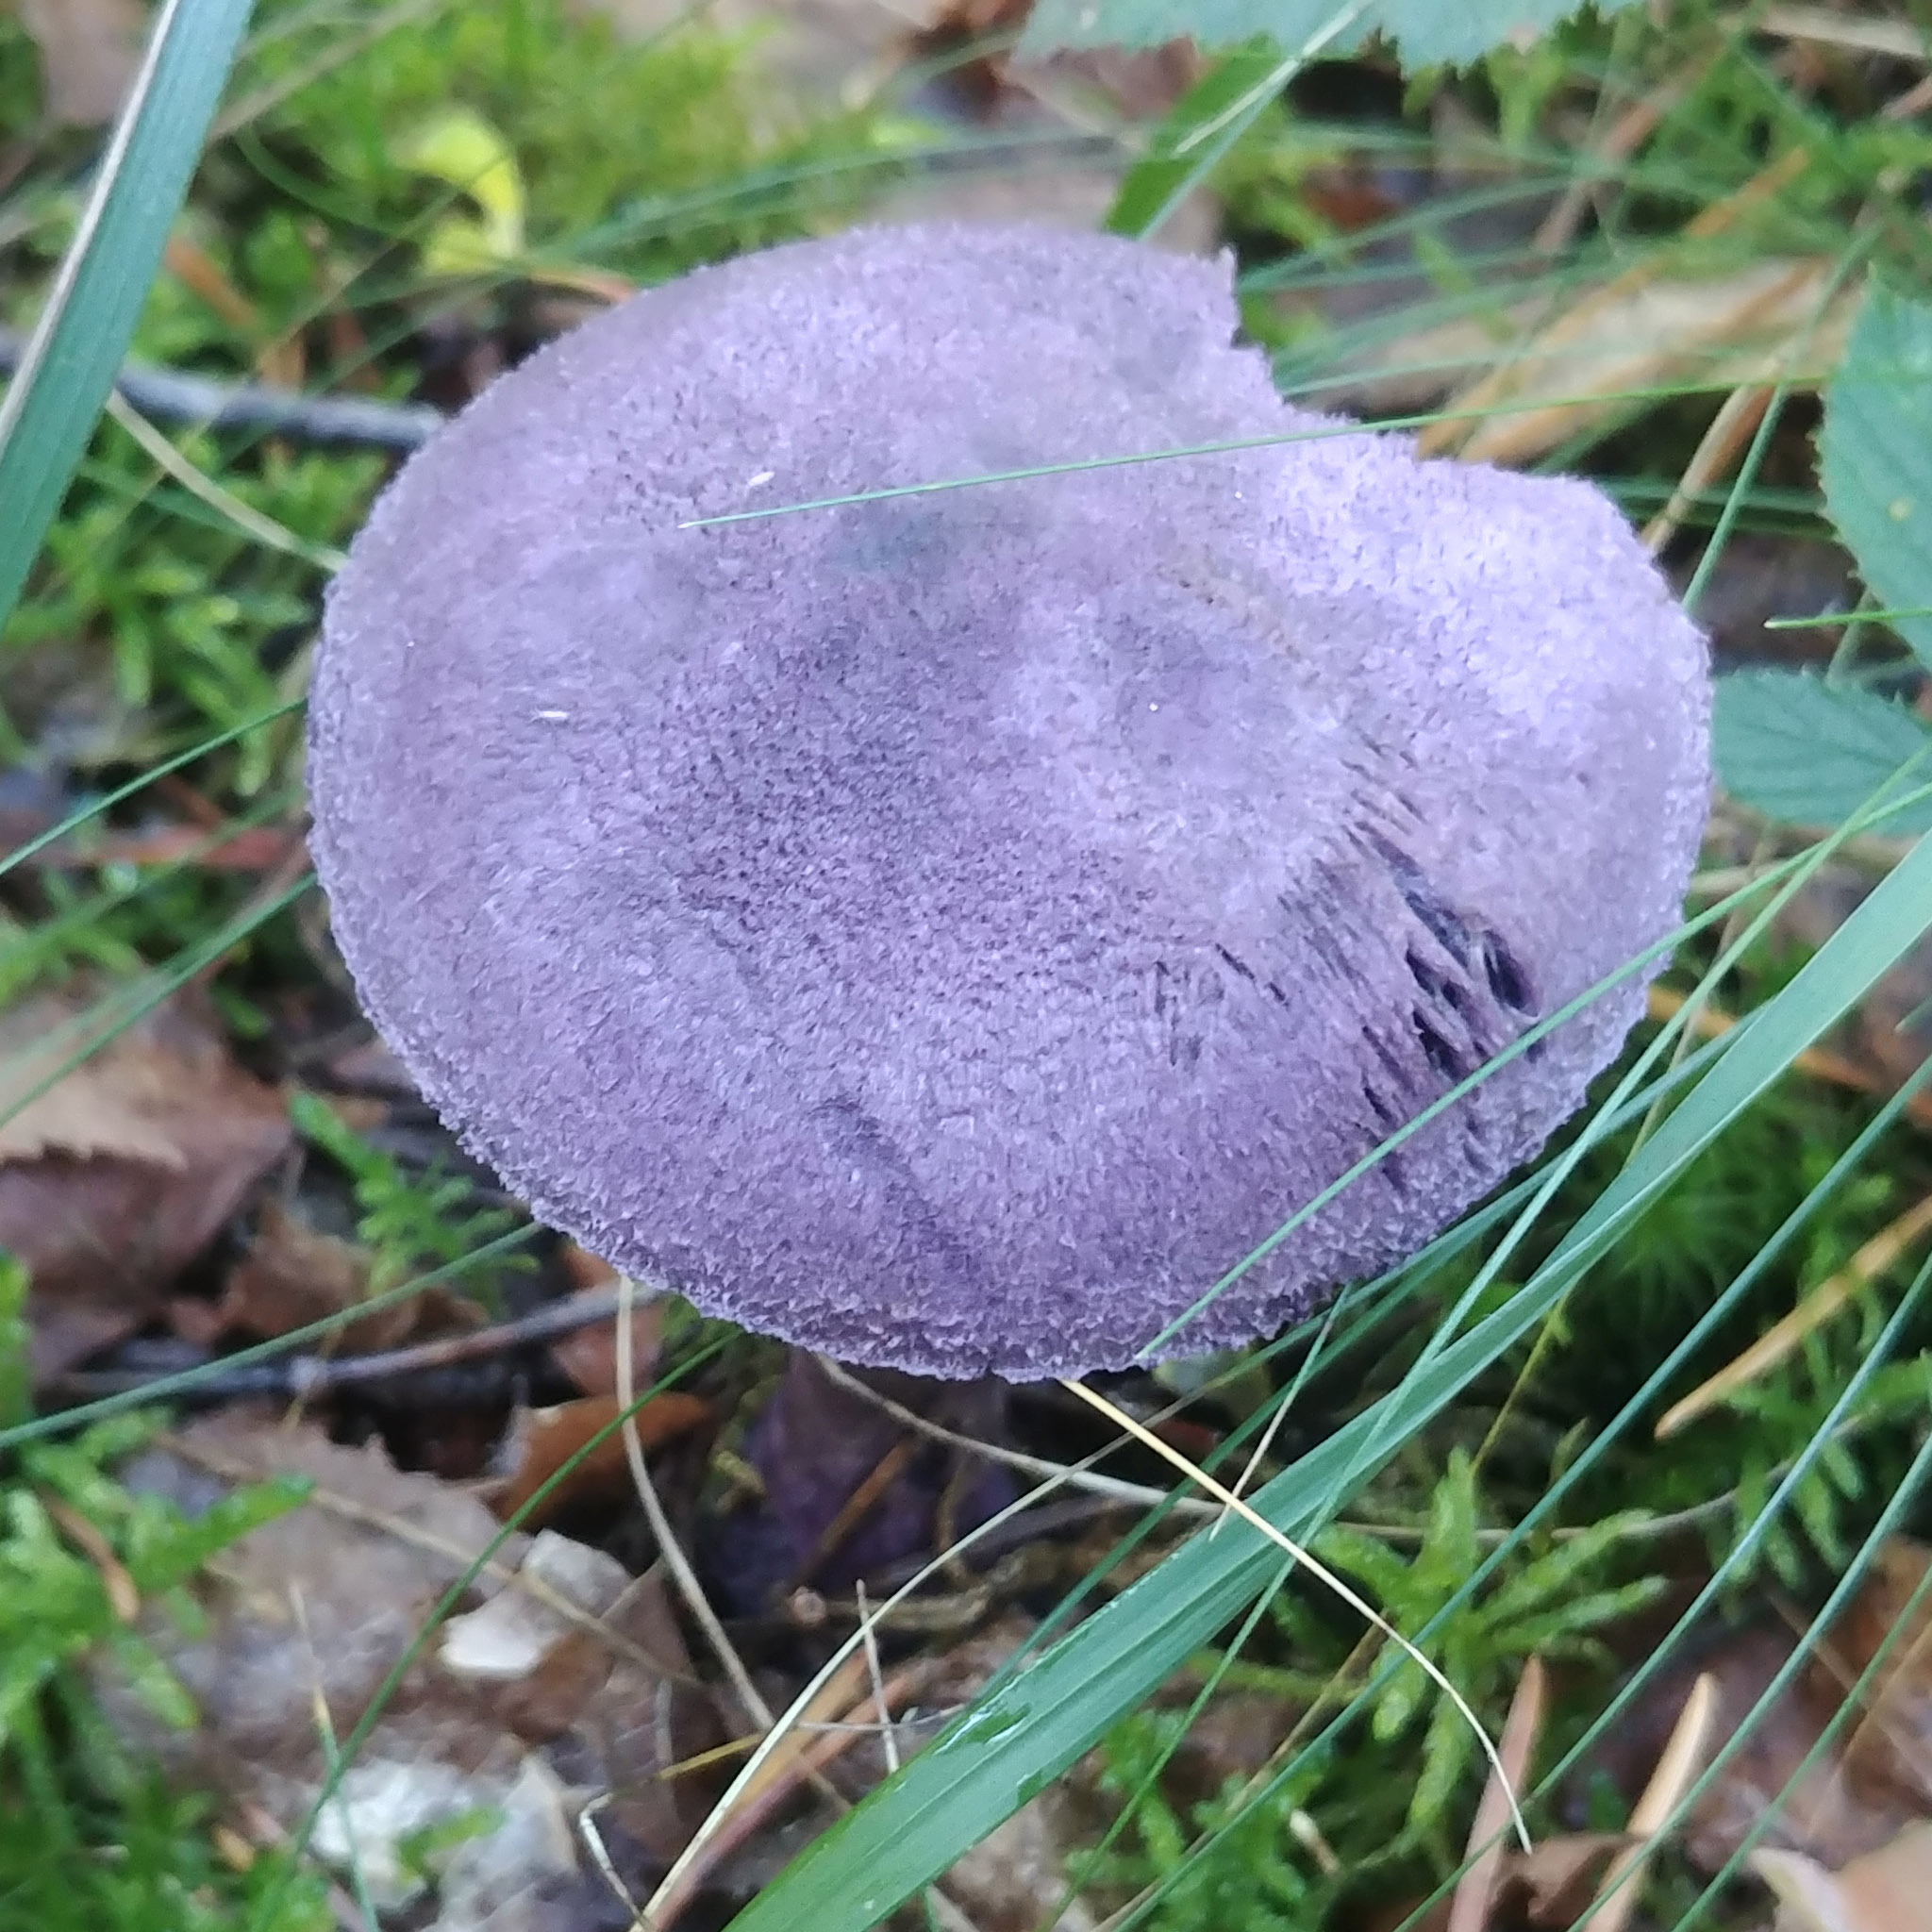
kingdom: Fungi
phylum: Basidiomycota
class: Agaricomycetes
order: Agaricales
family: Cortinariaceae
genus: Cortinarius
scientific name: Cortinarius violaceus
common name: Violet webcap
